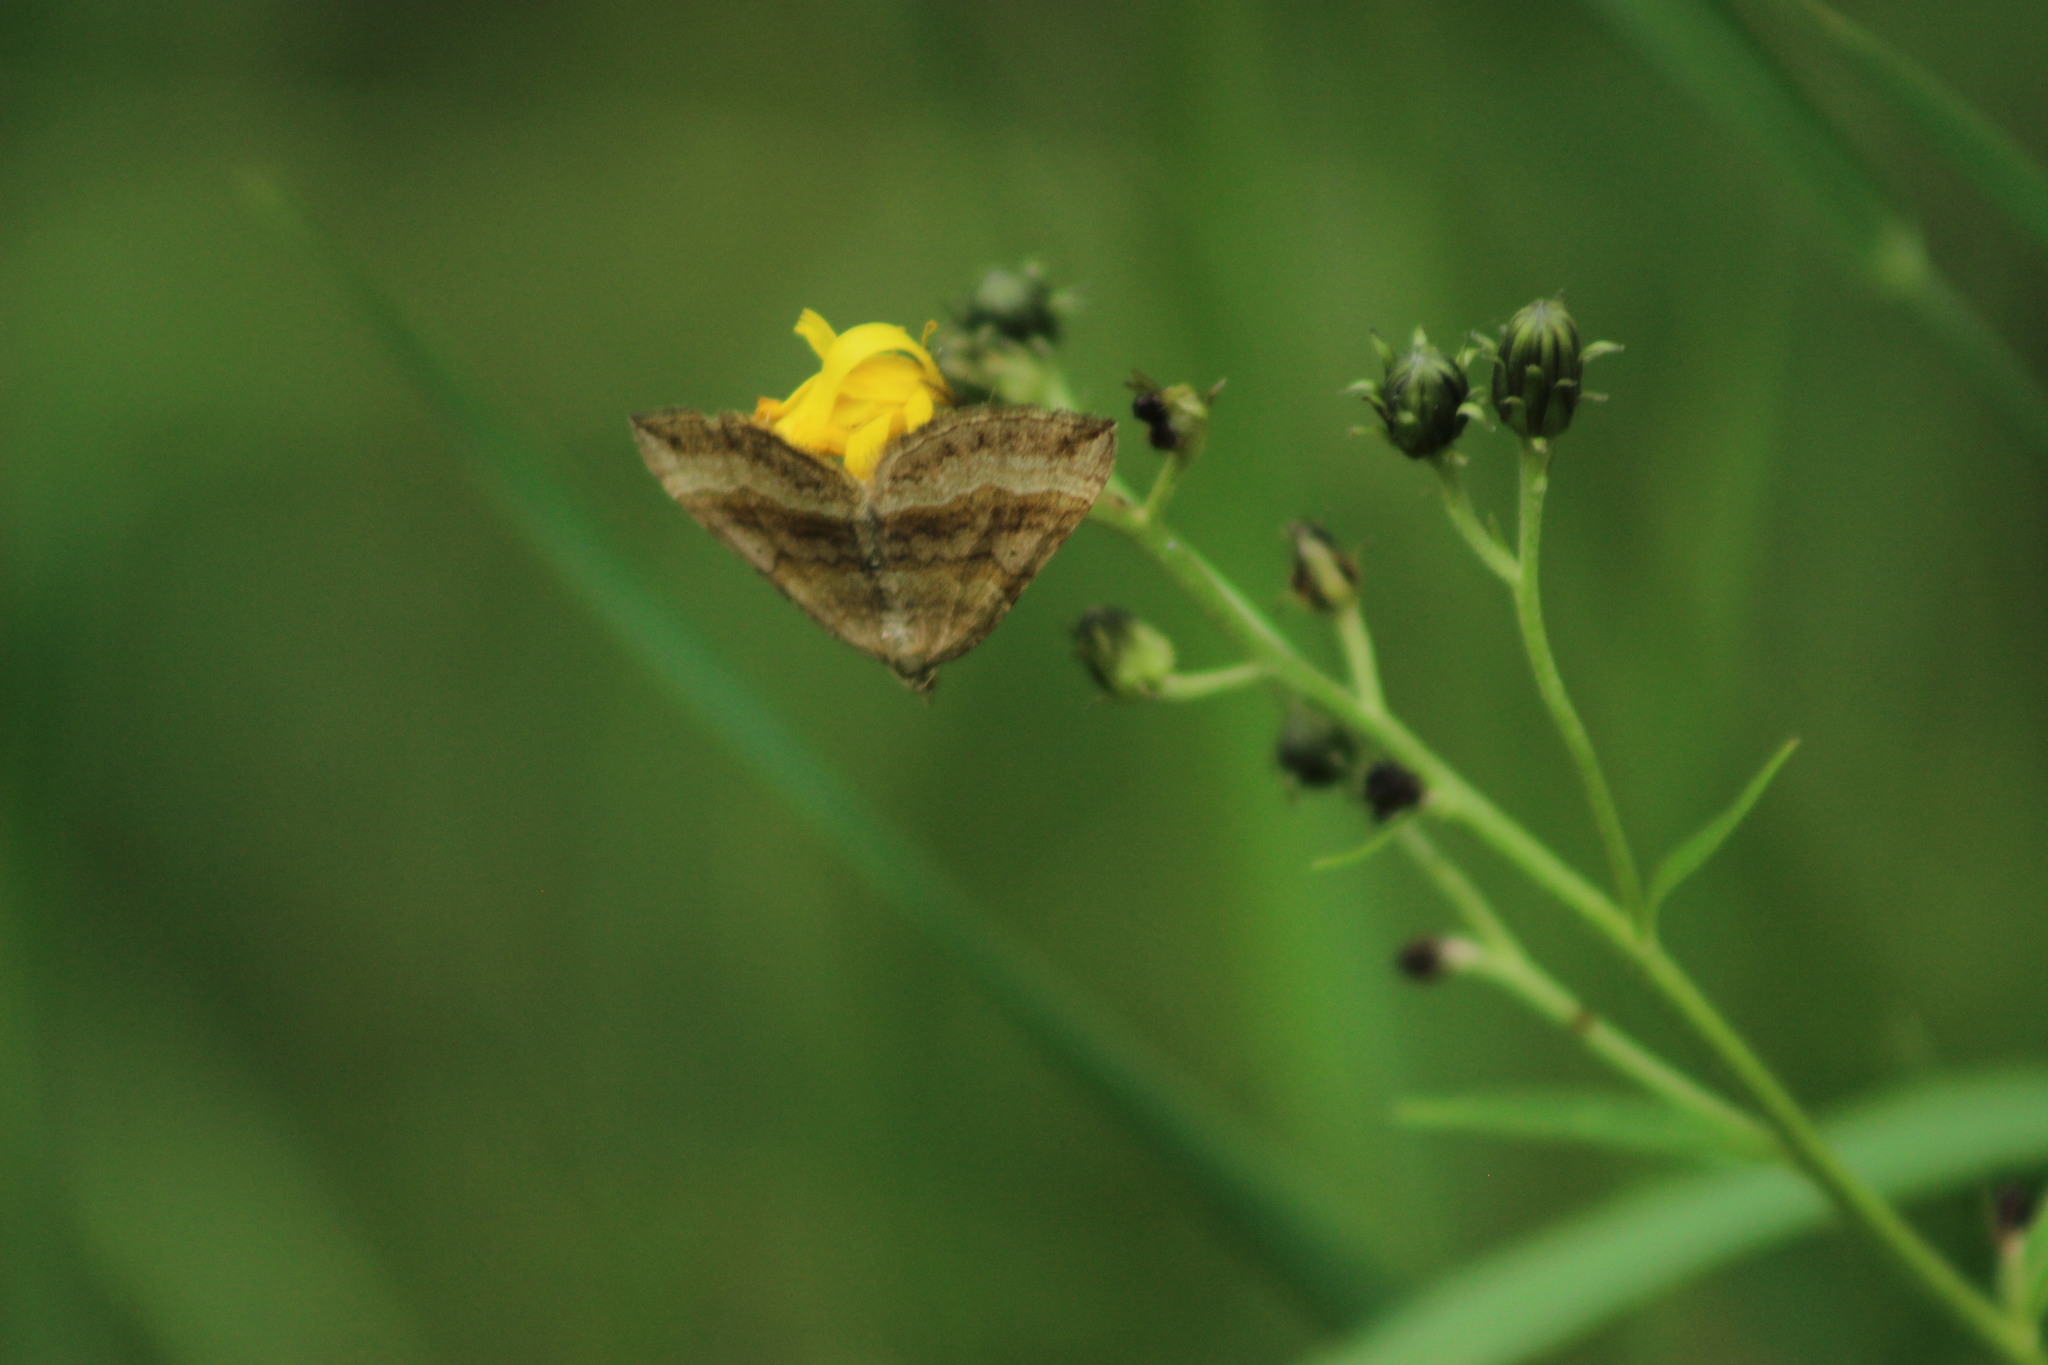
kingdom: Animalia
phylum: Arthropoda
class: Insecta
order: Lepidoptera
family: Geometridae
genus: Scotopteryx
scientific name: Scotopteryx chenopodiata
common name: Shaded broad-bar
